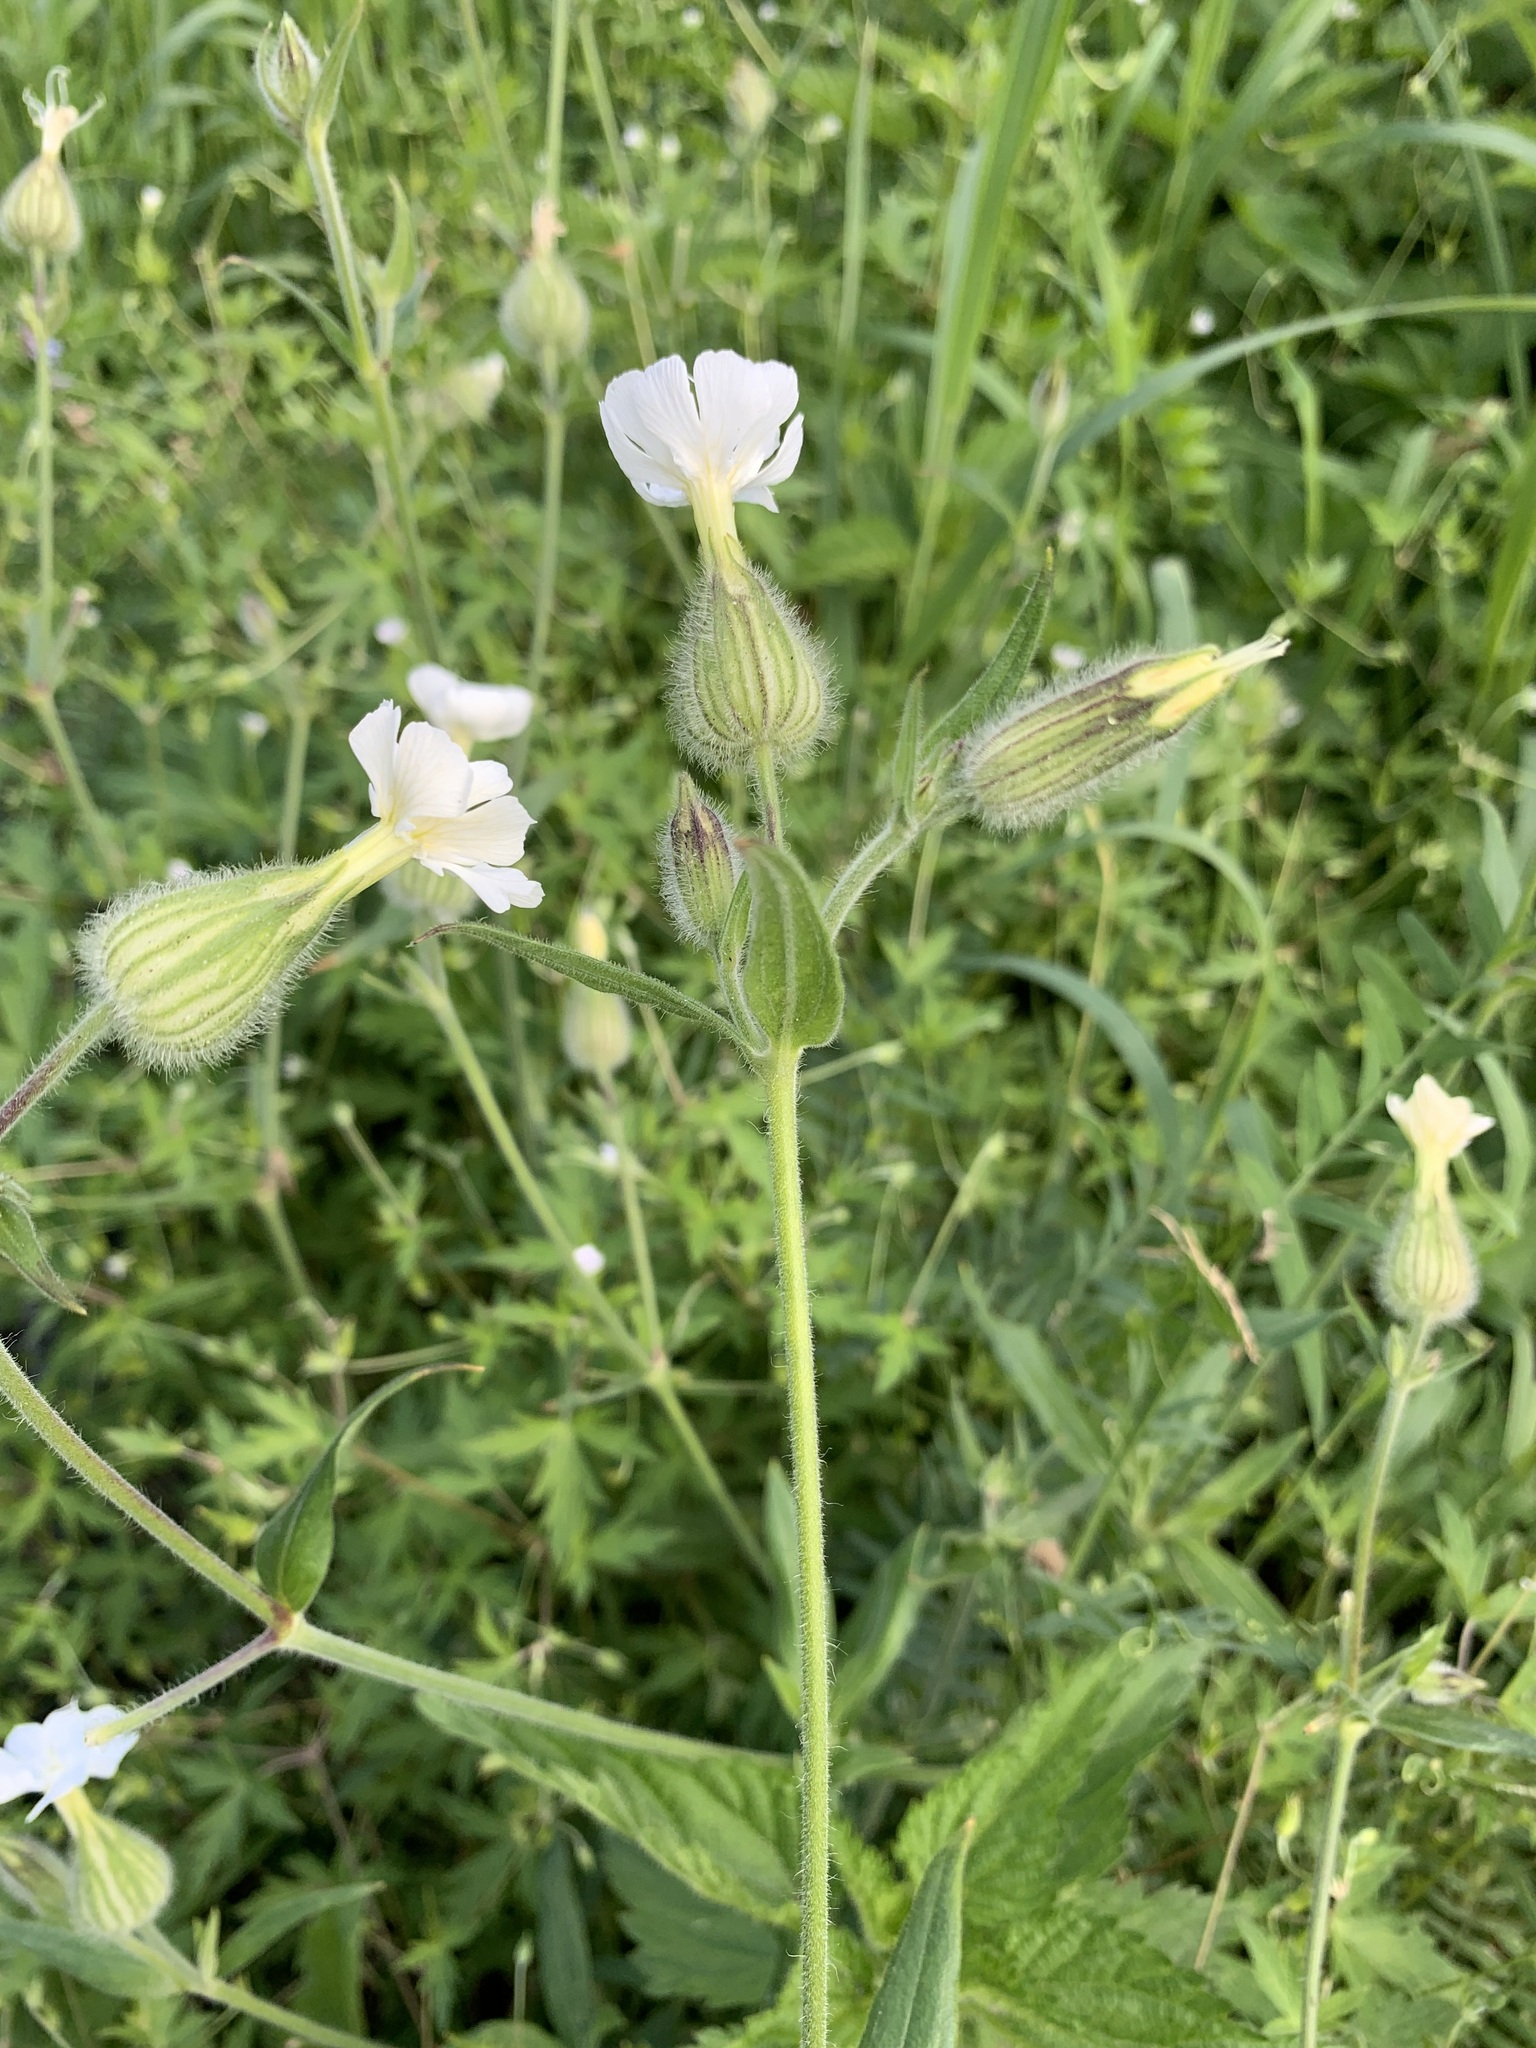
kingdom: Plantae
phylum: Tracheophyta
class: Magnoliopsida
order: Caryophyllales
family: Caryophyllaceae
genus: Silene
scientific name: Silene latifolia
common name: White campion
